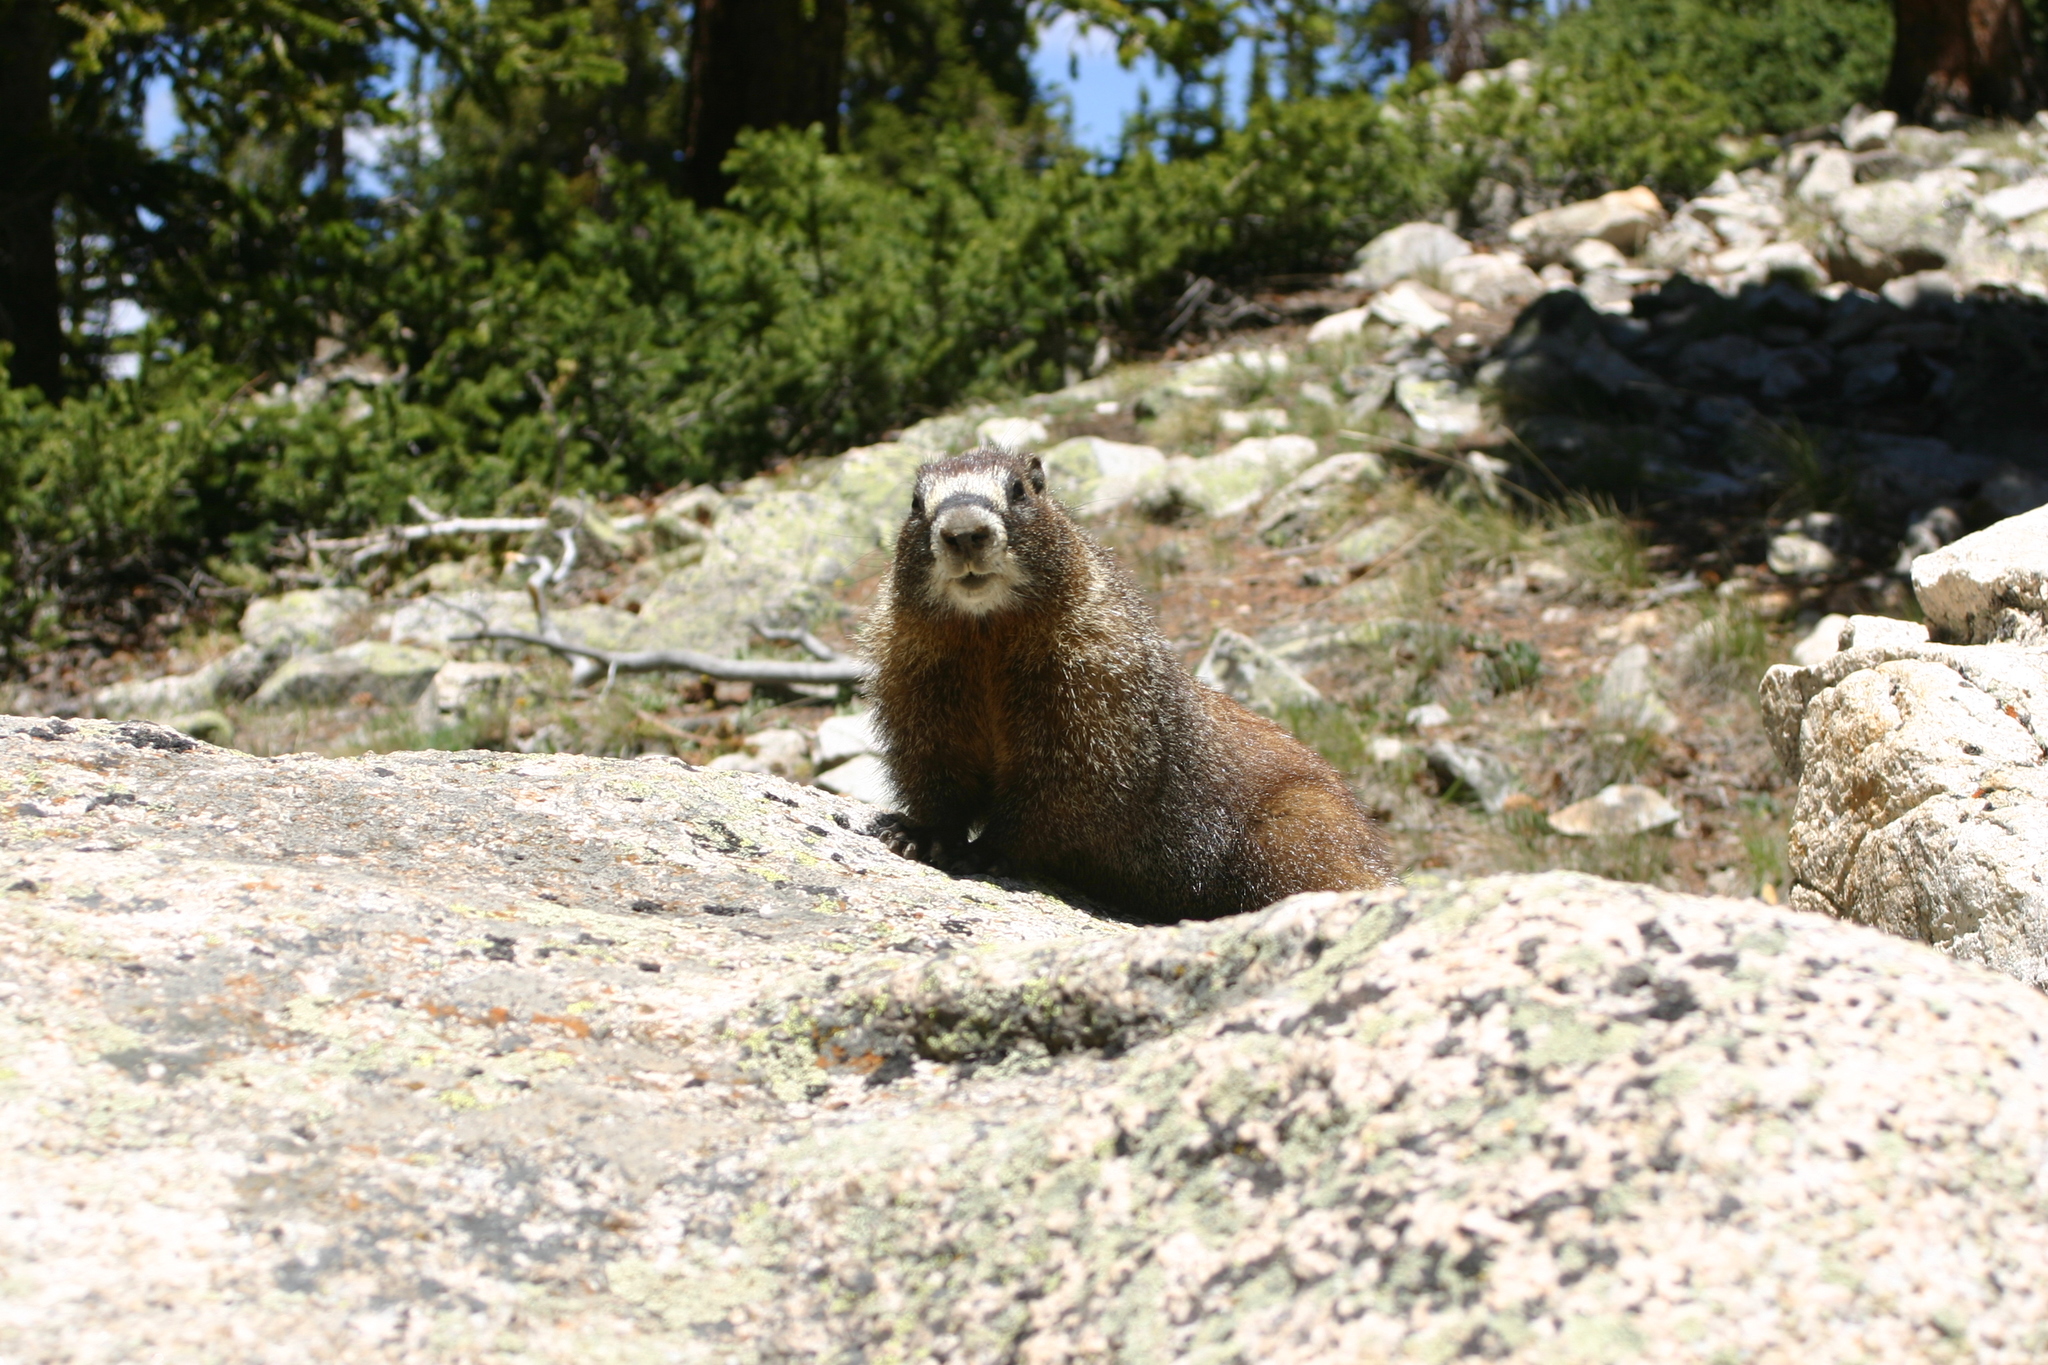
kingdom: Animalia
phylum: Chordata
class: Mammalia
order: Rodentia
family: Sciuridae
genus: Marmota
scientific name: Marmota flaviventris
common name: Yellow-bellied marmot
